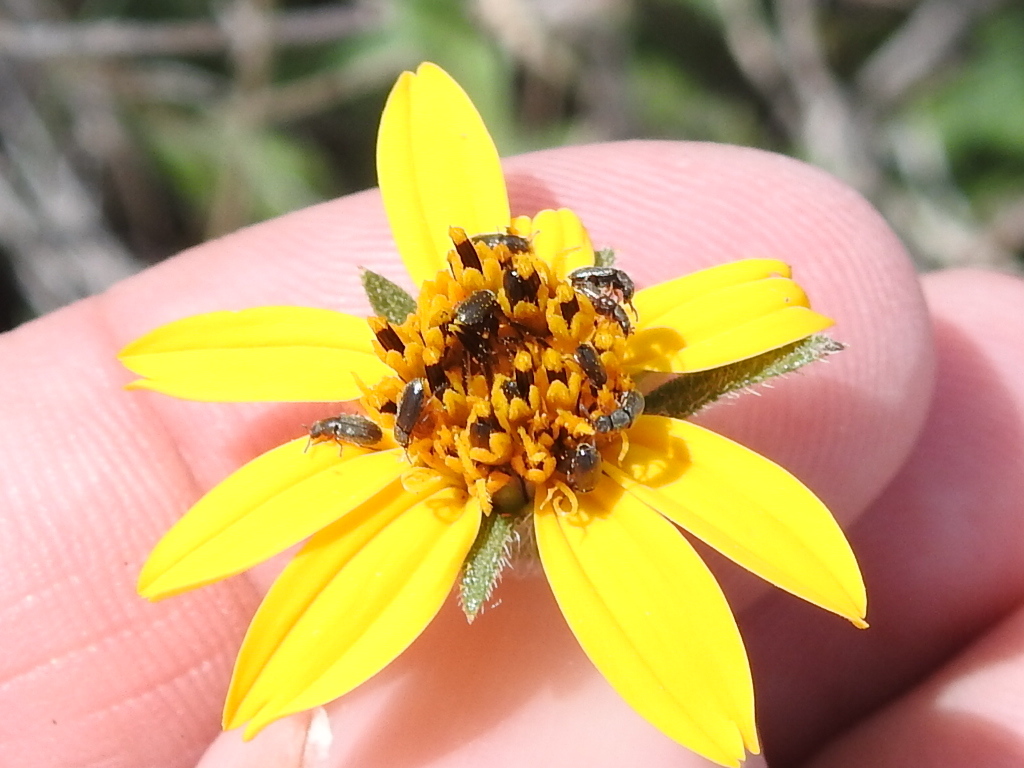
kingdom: Plantae
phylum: Tracheophyta
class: Magnoliopsida
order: Asterales
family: Asteraceae
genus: Wedelia
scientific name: Wedelia acapulcensis
